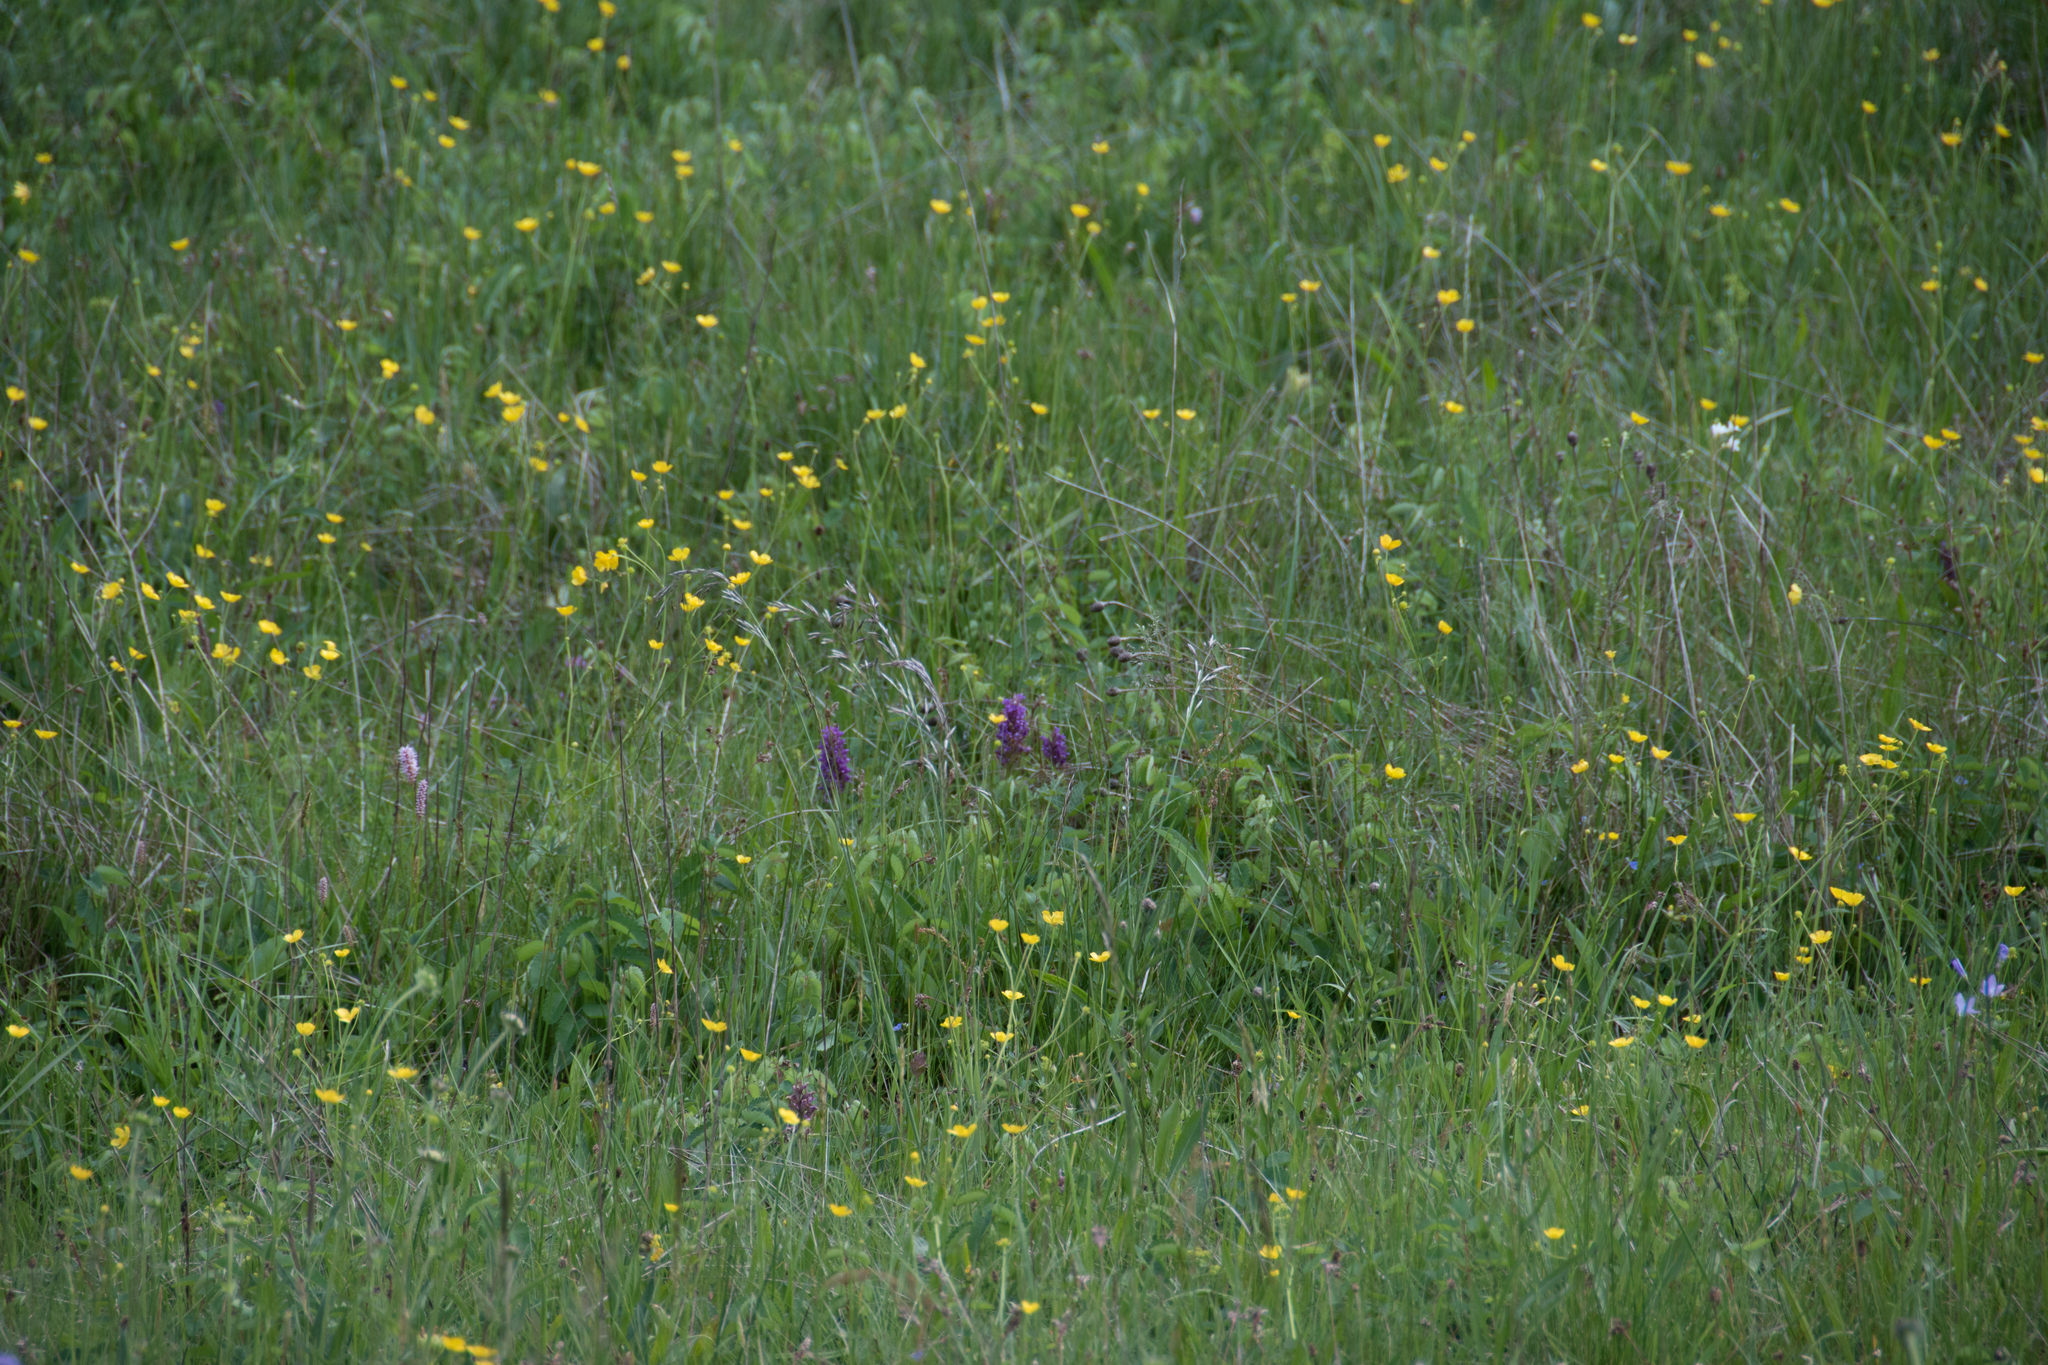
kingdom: Plantae
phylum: Tracheophyta
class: Liliopsida
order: Asparagales
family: Orchidaceae
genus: Dactylorhiza
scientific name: Dactylorhiza majalis
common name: Marsh orchid
